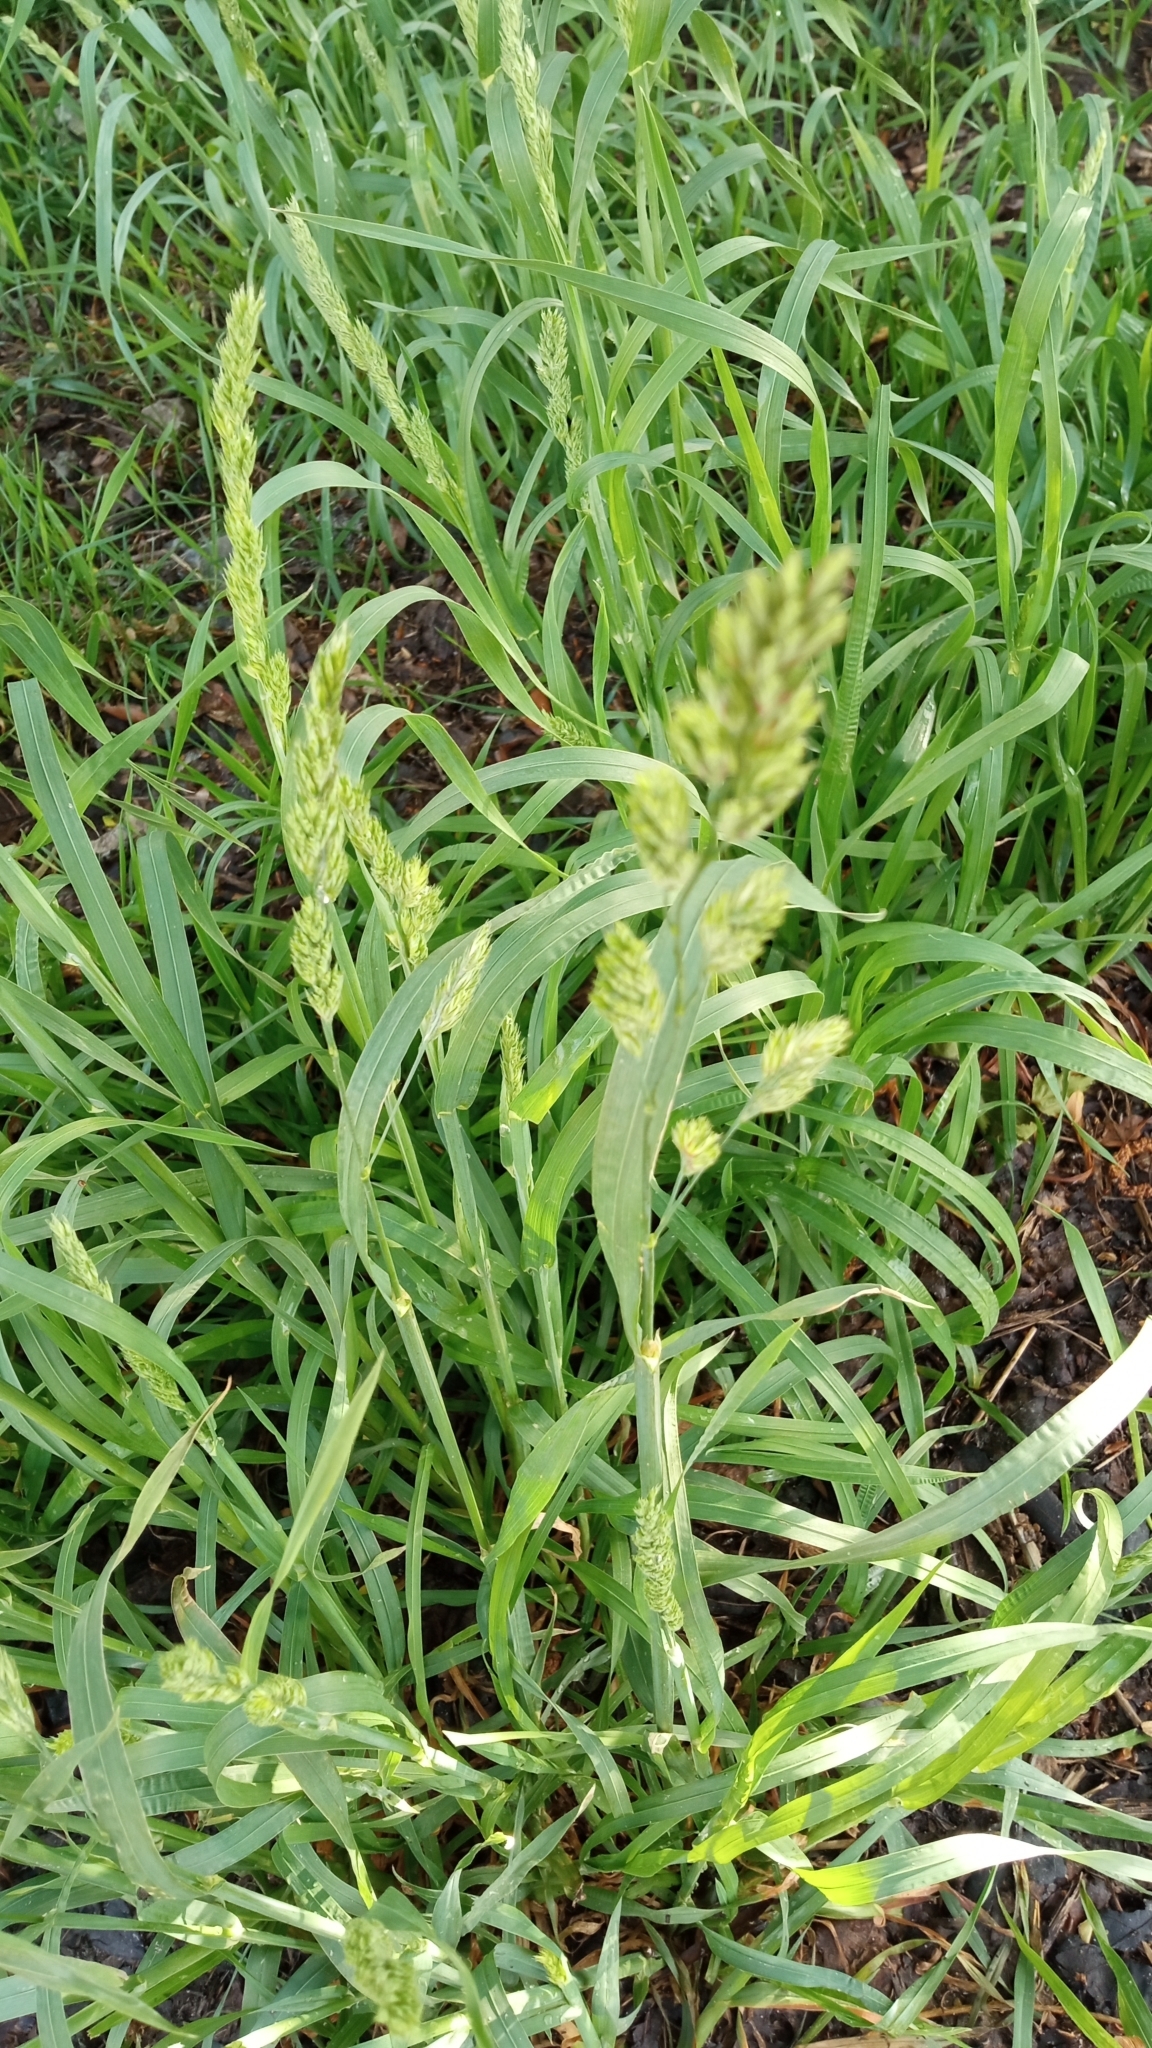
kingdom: Plantae
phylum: Tracheophyta
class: Liliopsida
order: Poales
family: Poaceae
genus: Dactylis
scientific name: Dactylis glomerata
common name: Orchardgrass
